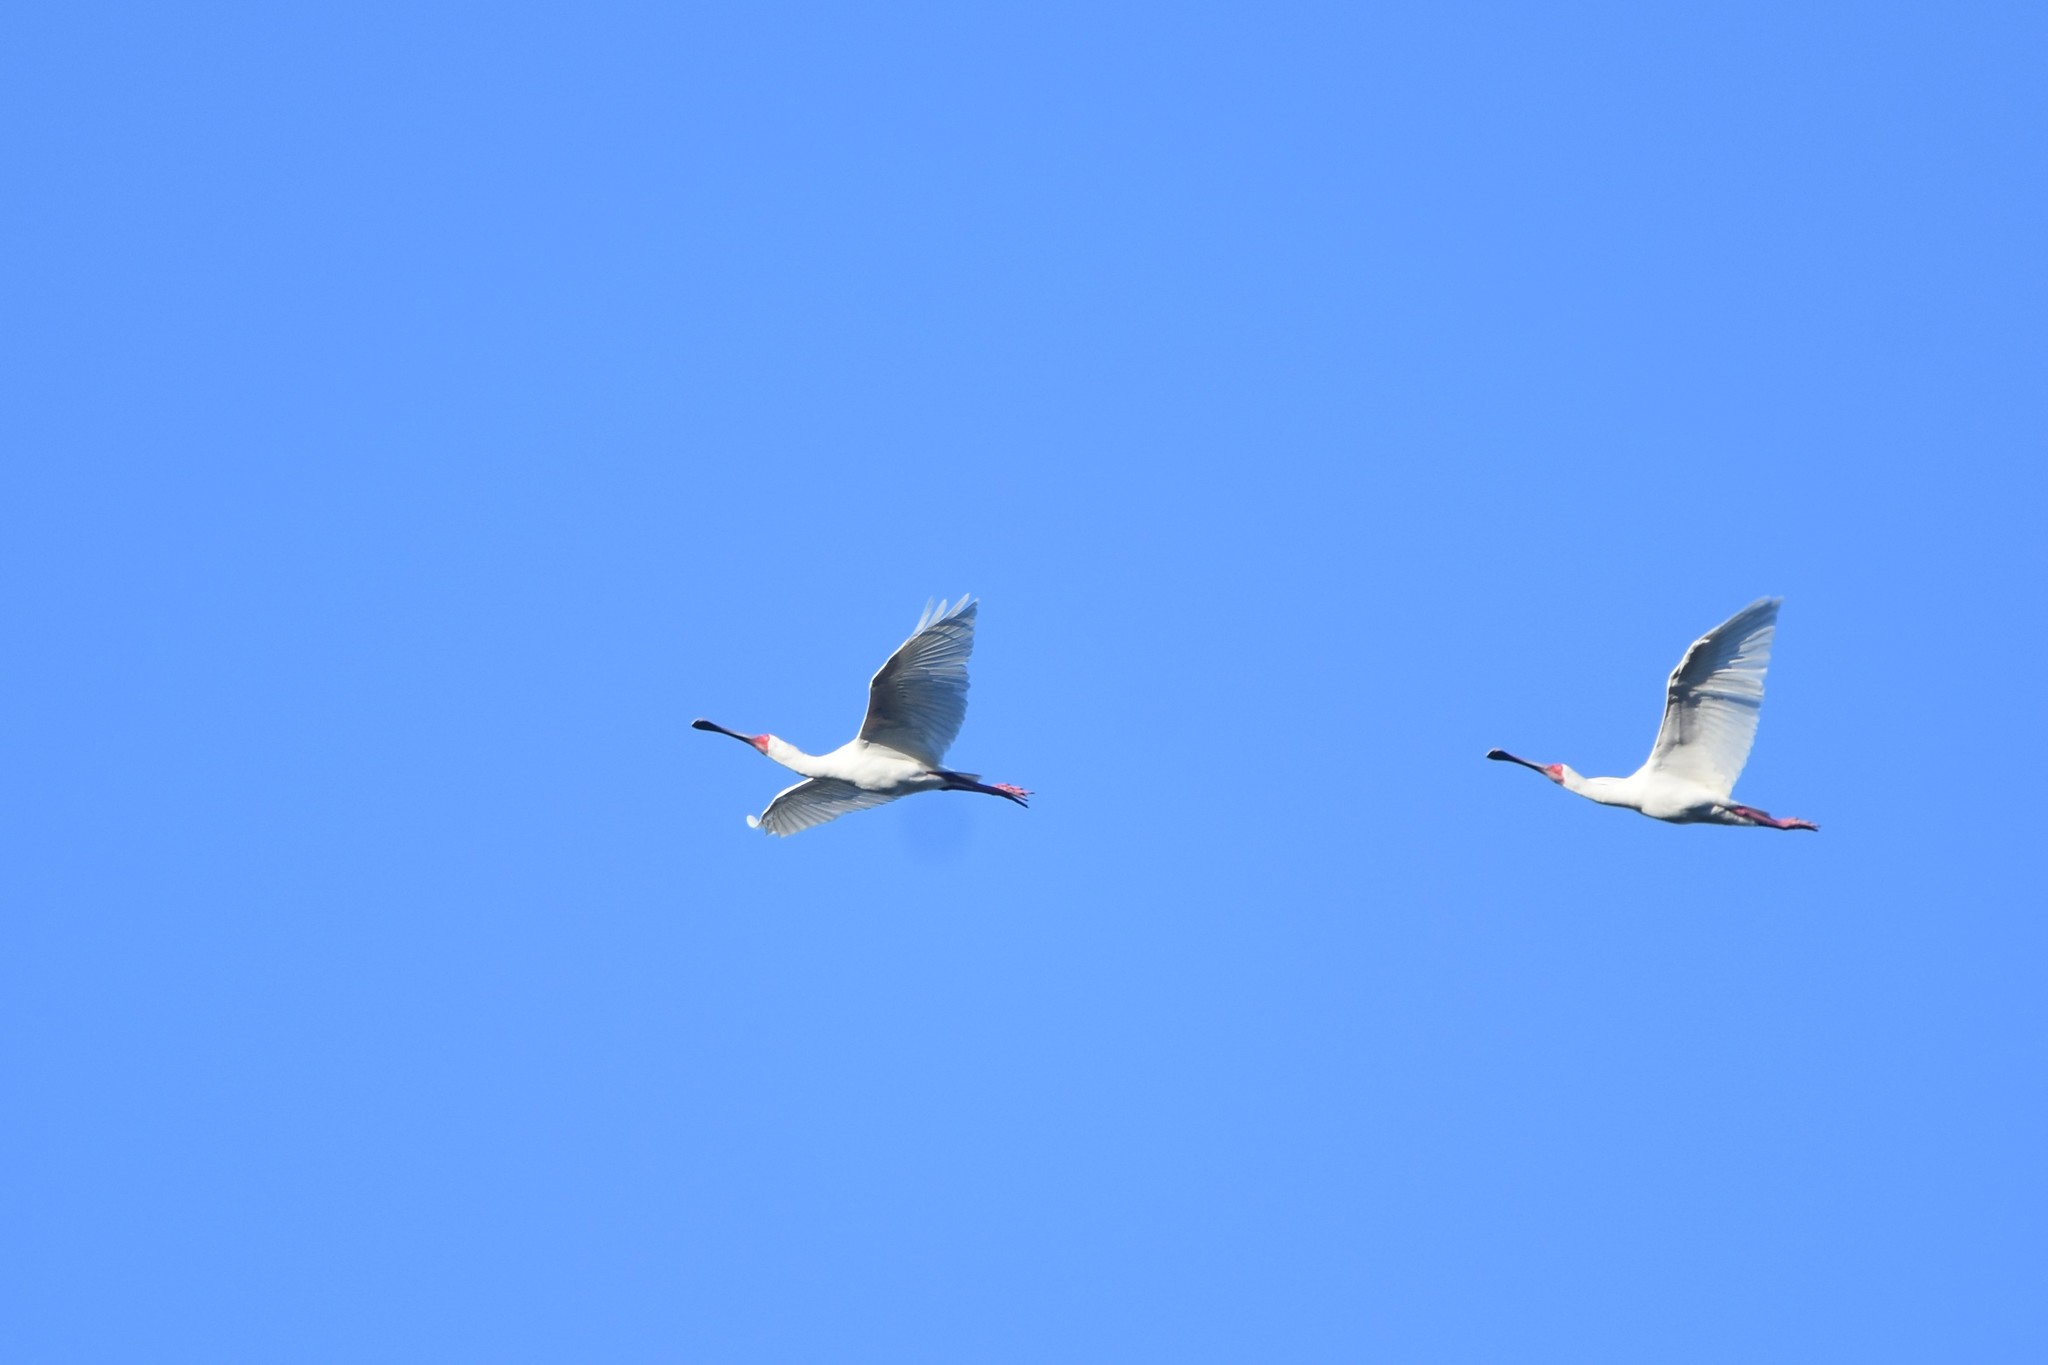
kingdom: Animalia
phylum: Chordata
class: Aves
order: Pelecaniformes
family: Threskiornithidae
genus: Platalea
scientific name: Platalea alba
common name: African spoonbill
